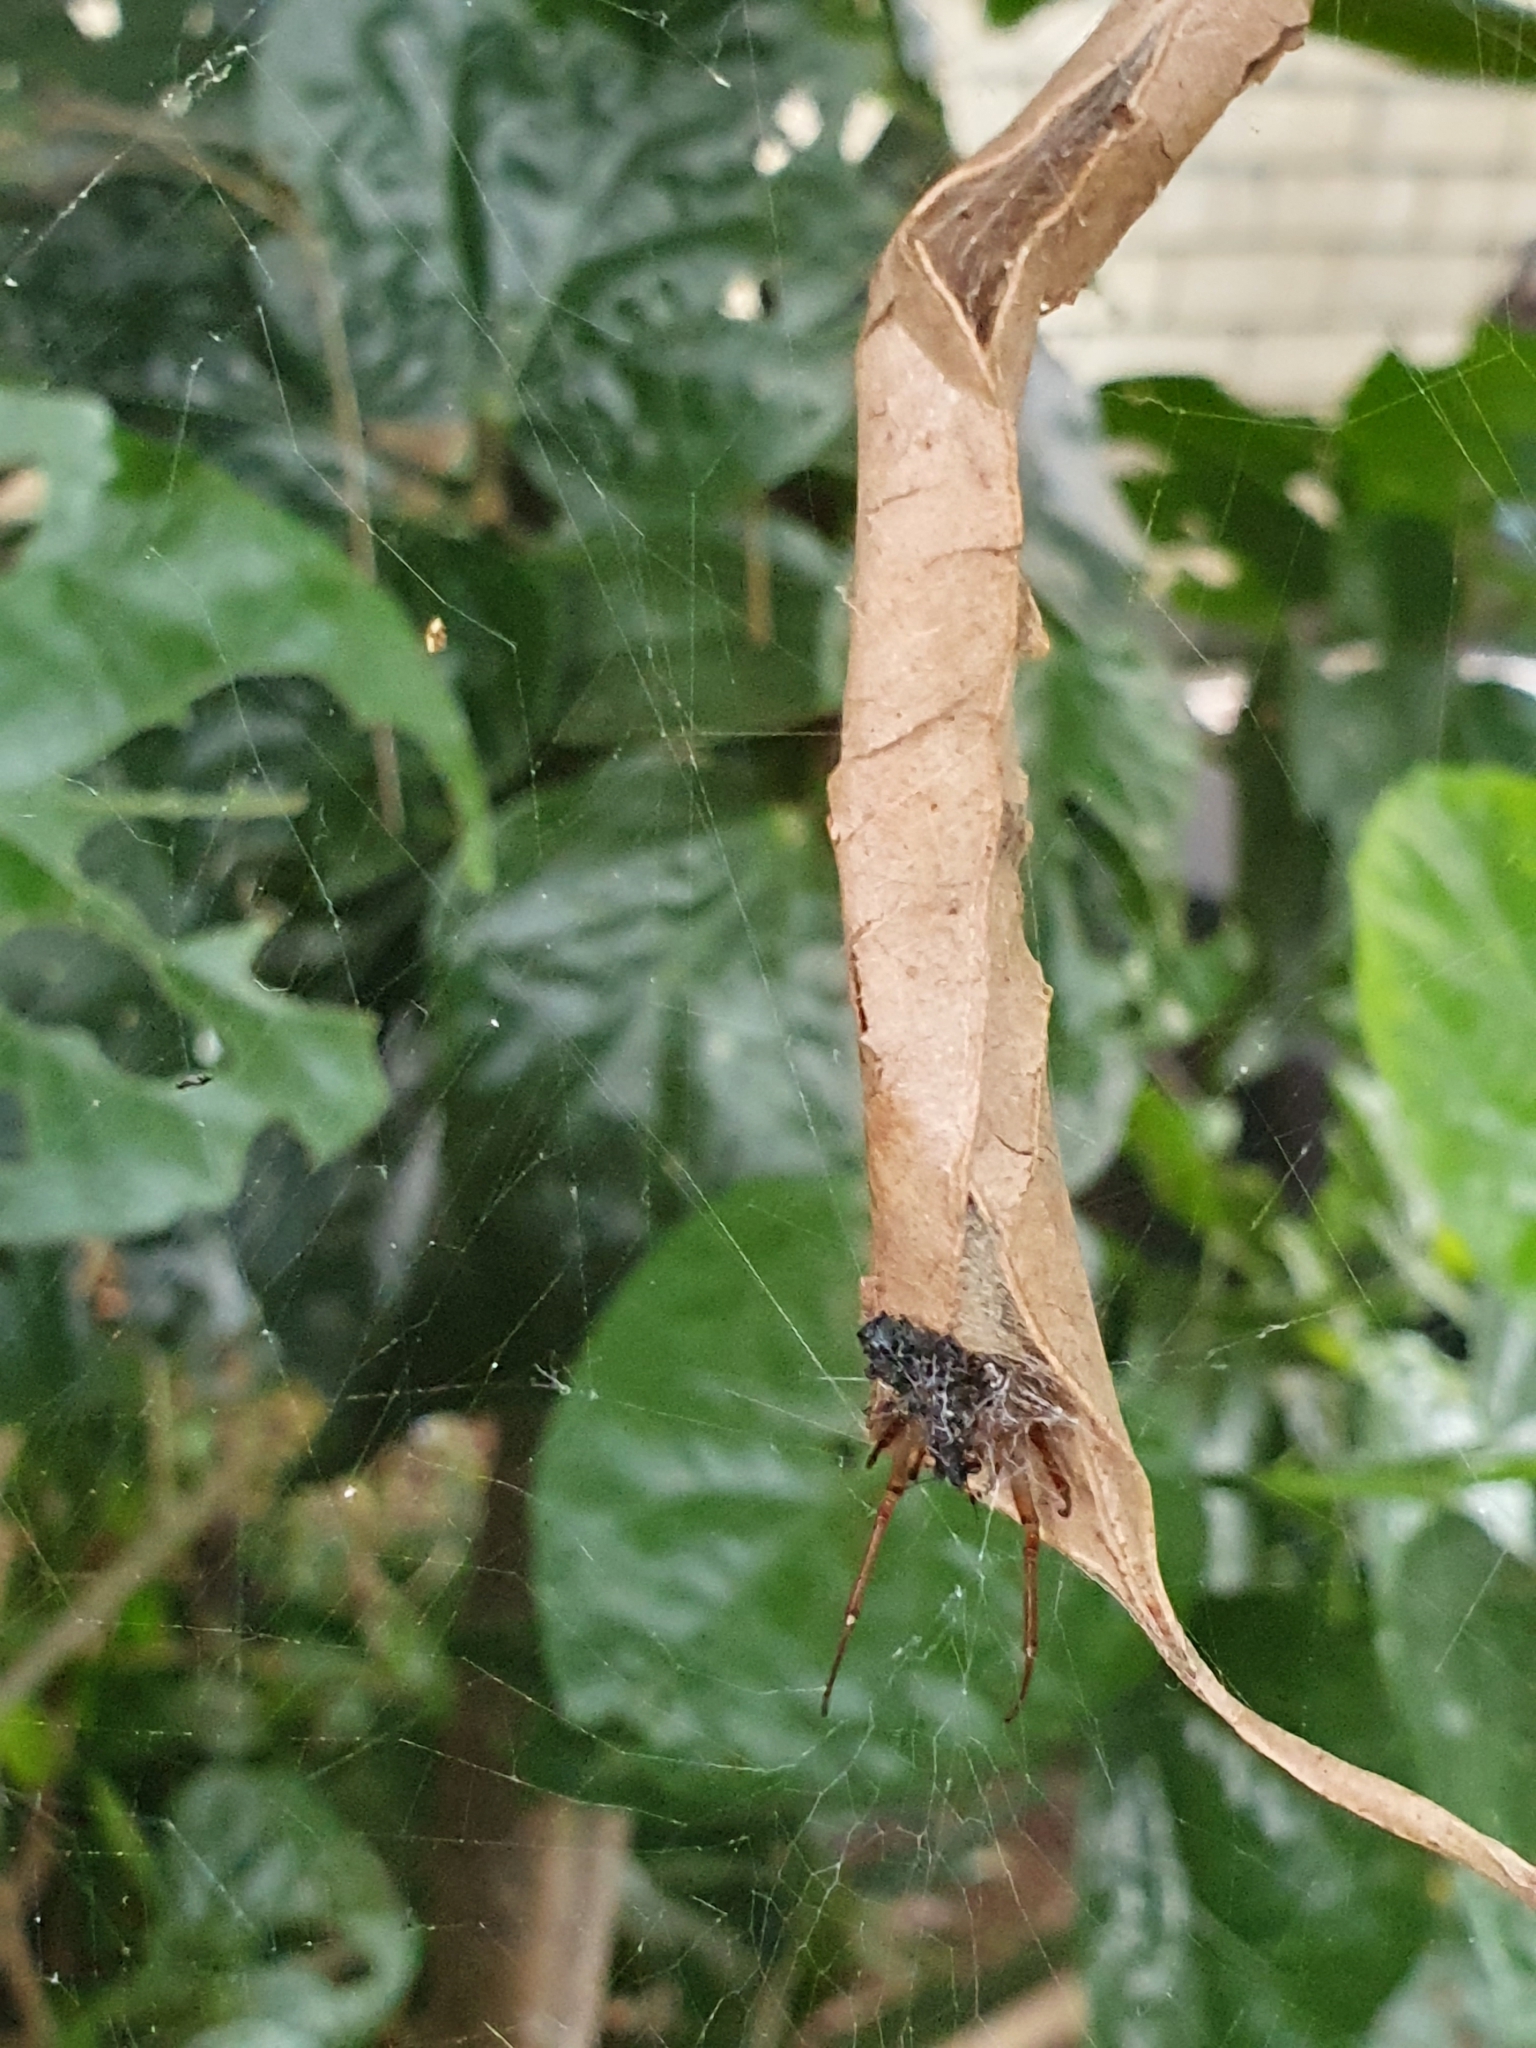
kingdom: Animalia
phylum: Arthropoda
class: Arachnida
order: Araneae
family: Araneidae
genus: Phonognatha
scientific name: Phonognatha graeffei
